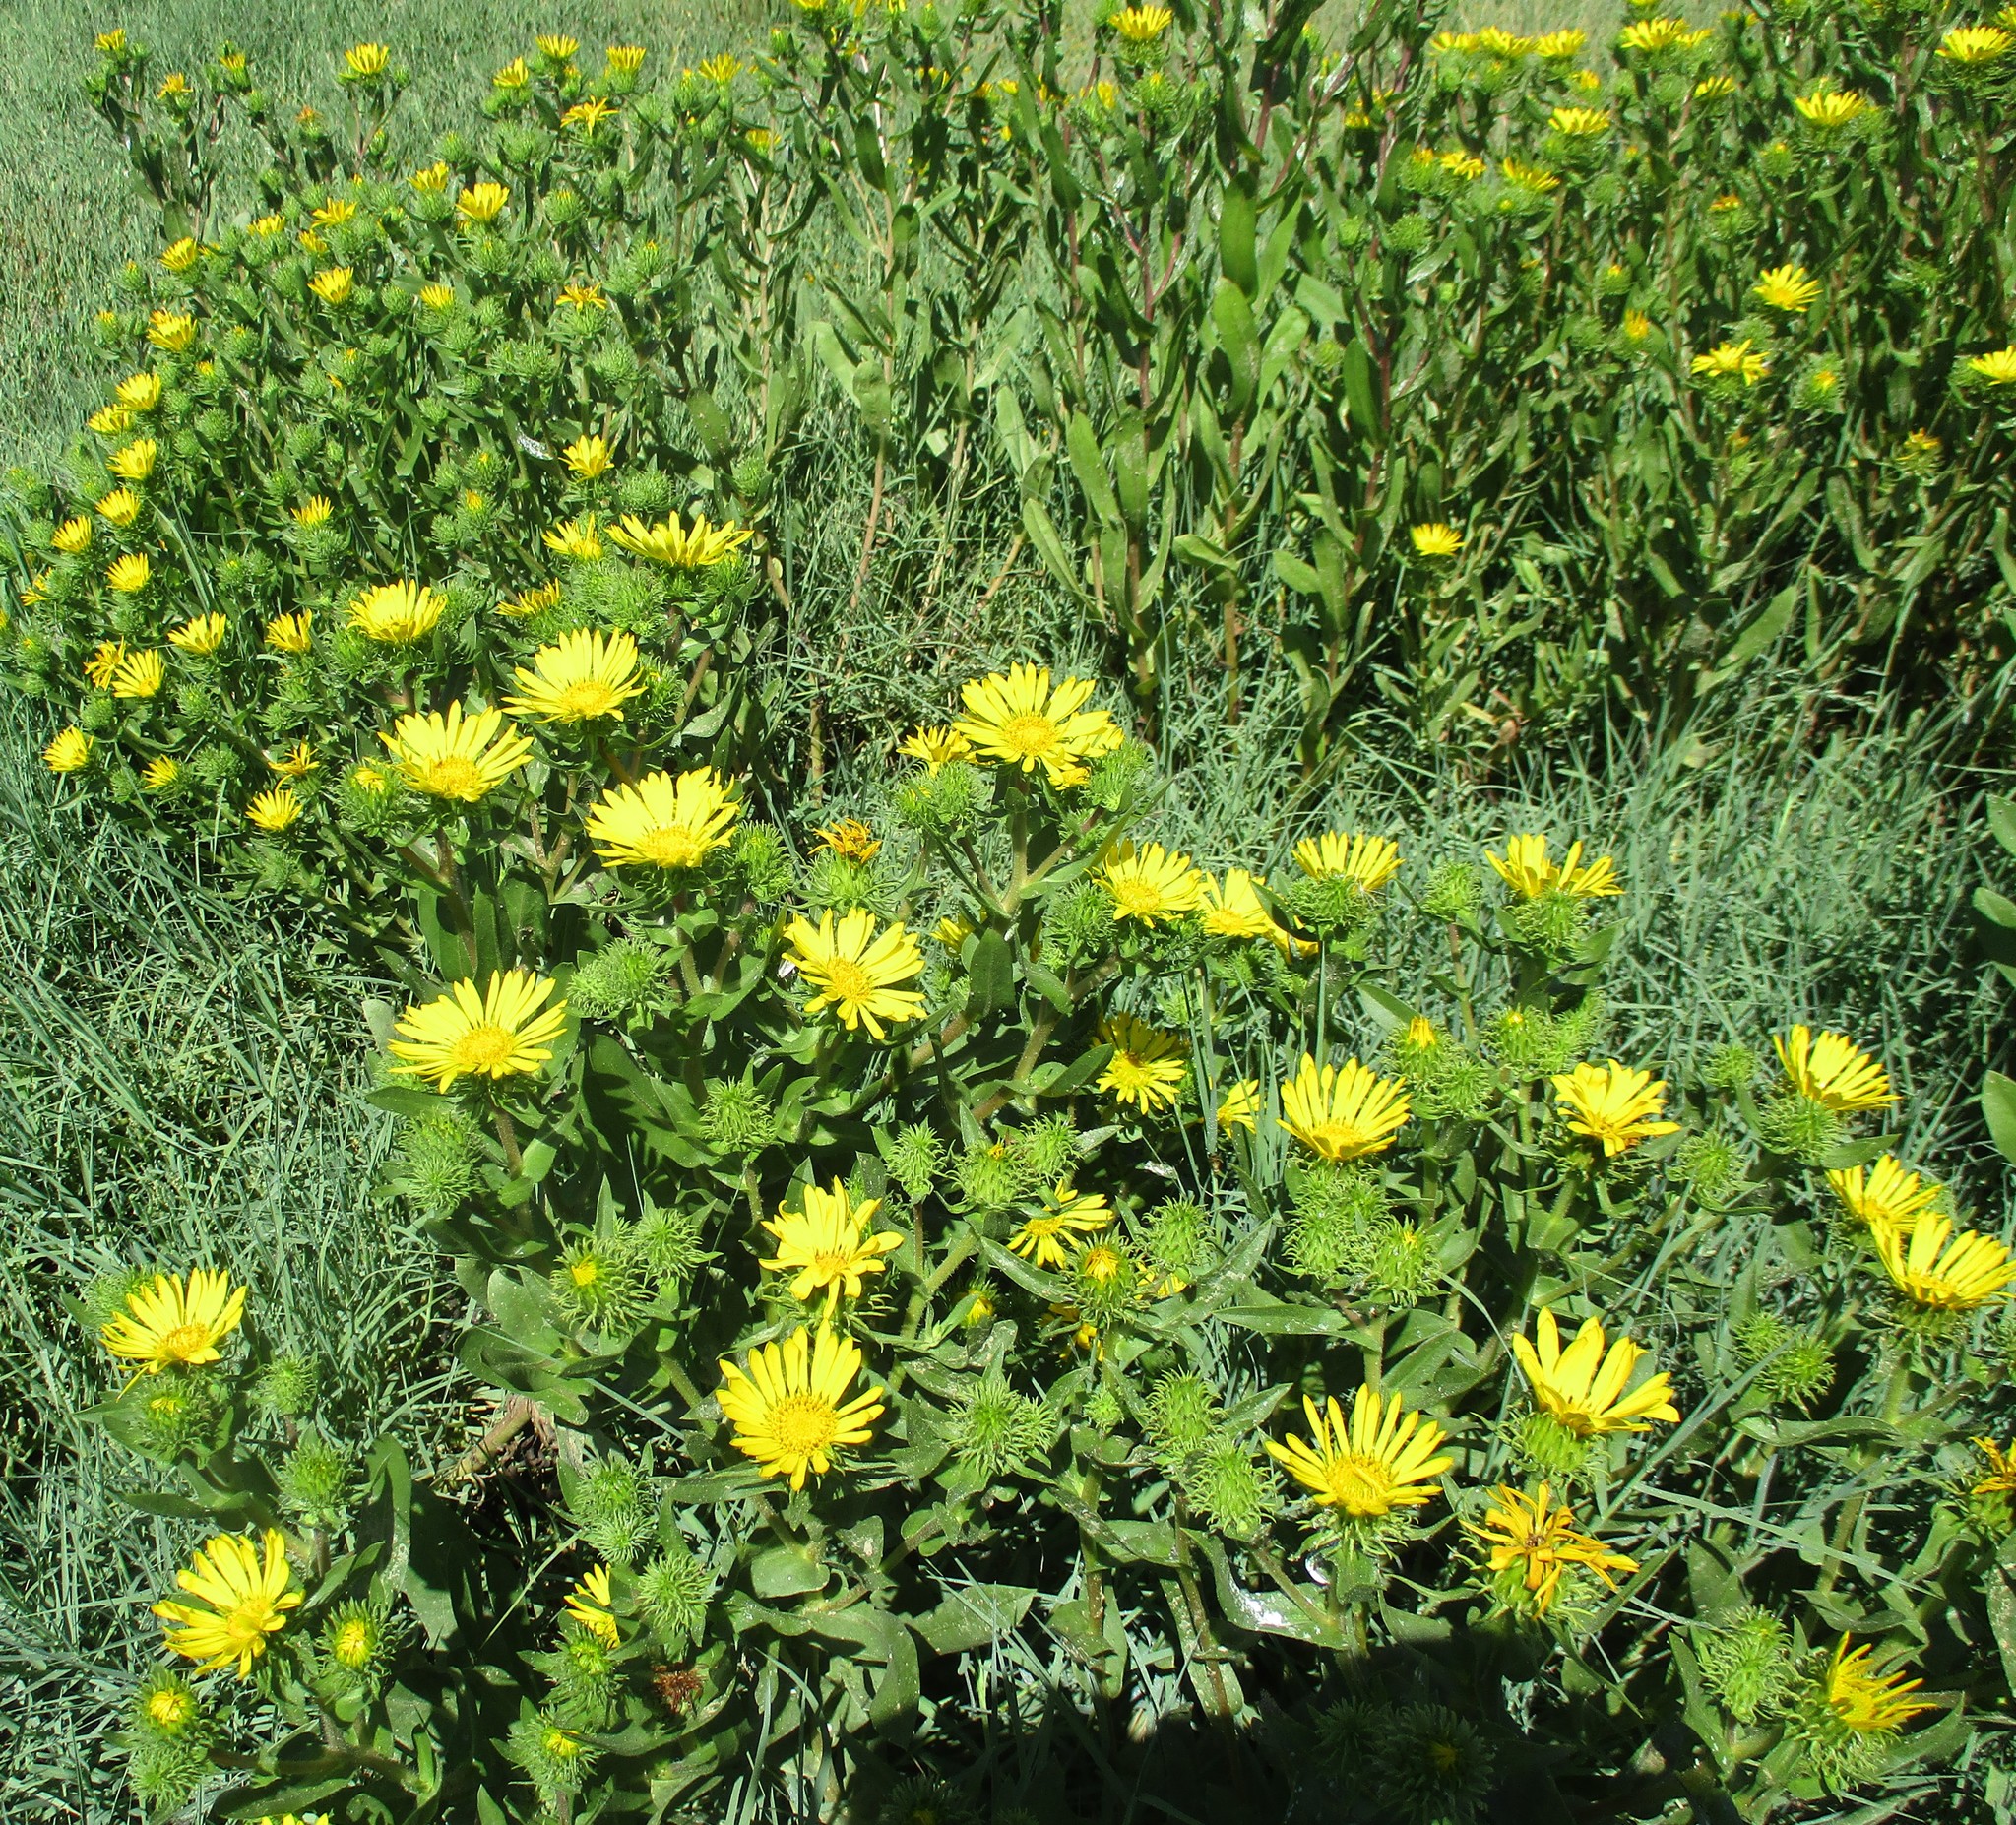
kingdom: Plantae
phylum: Tracheophyta
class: Magnoliopsida
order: Asterales
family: Asteraceae
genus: Grindelia
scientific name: Grindelia integrifolia
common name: Puget sound gumweed
